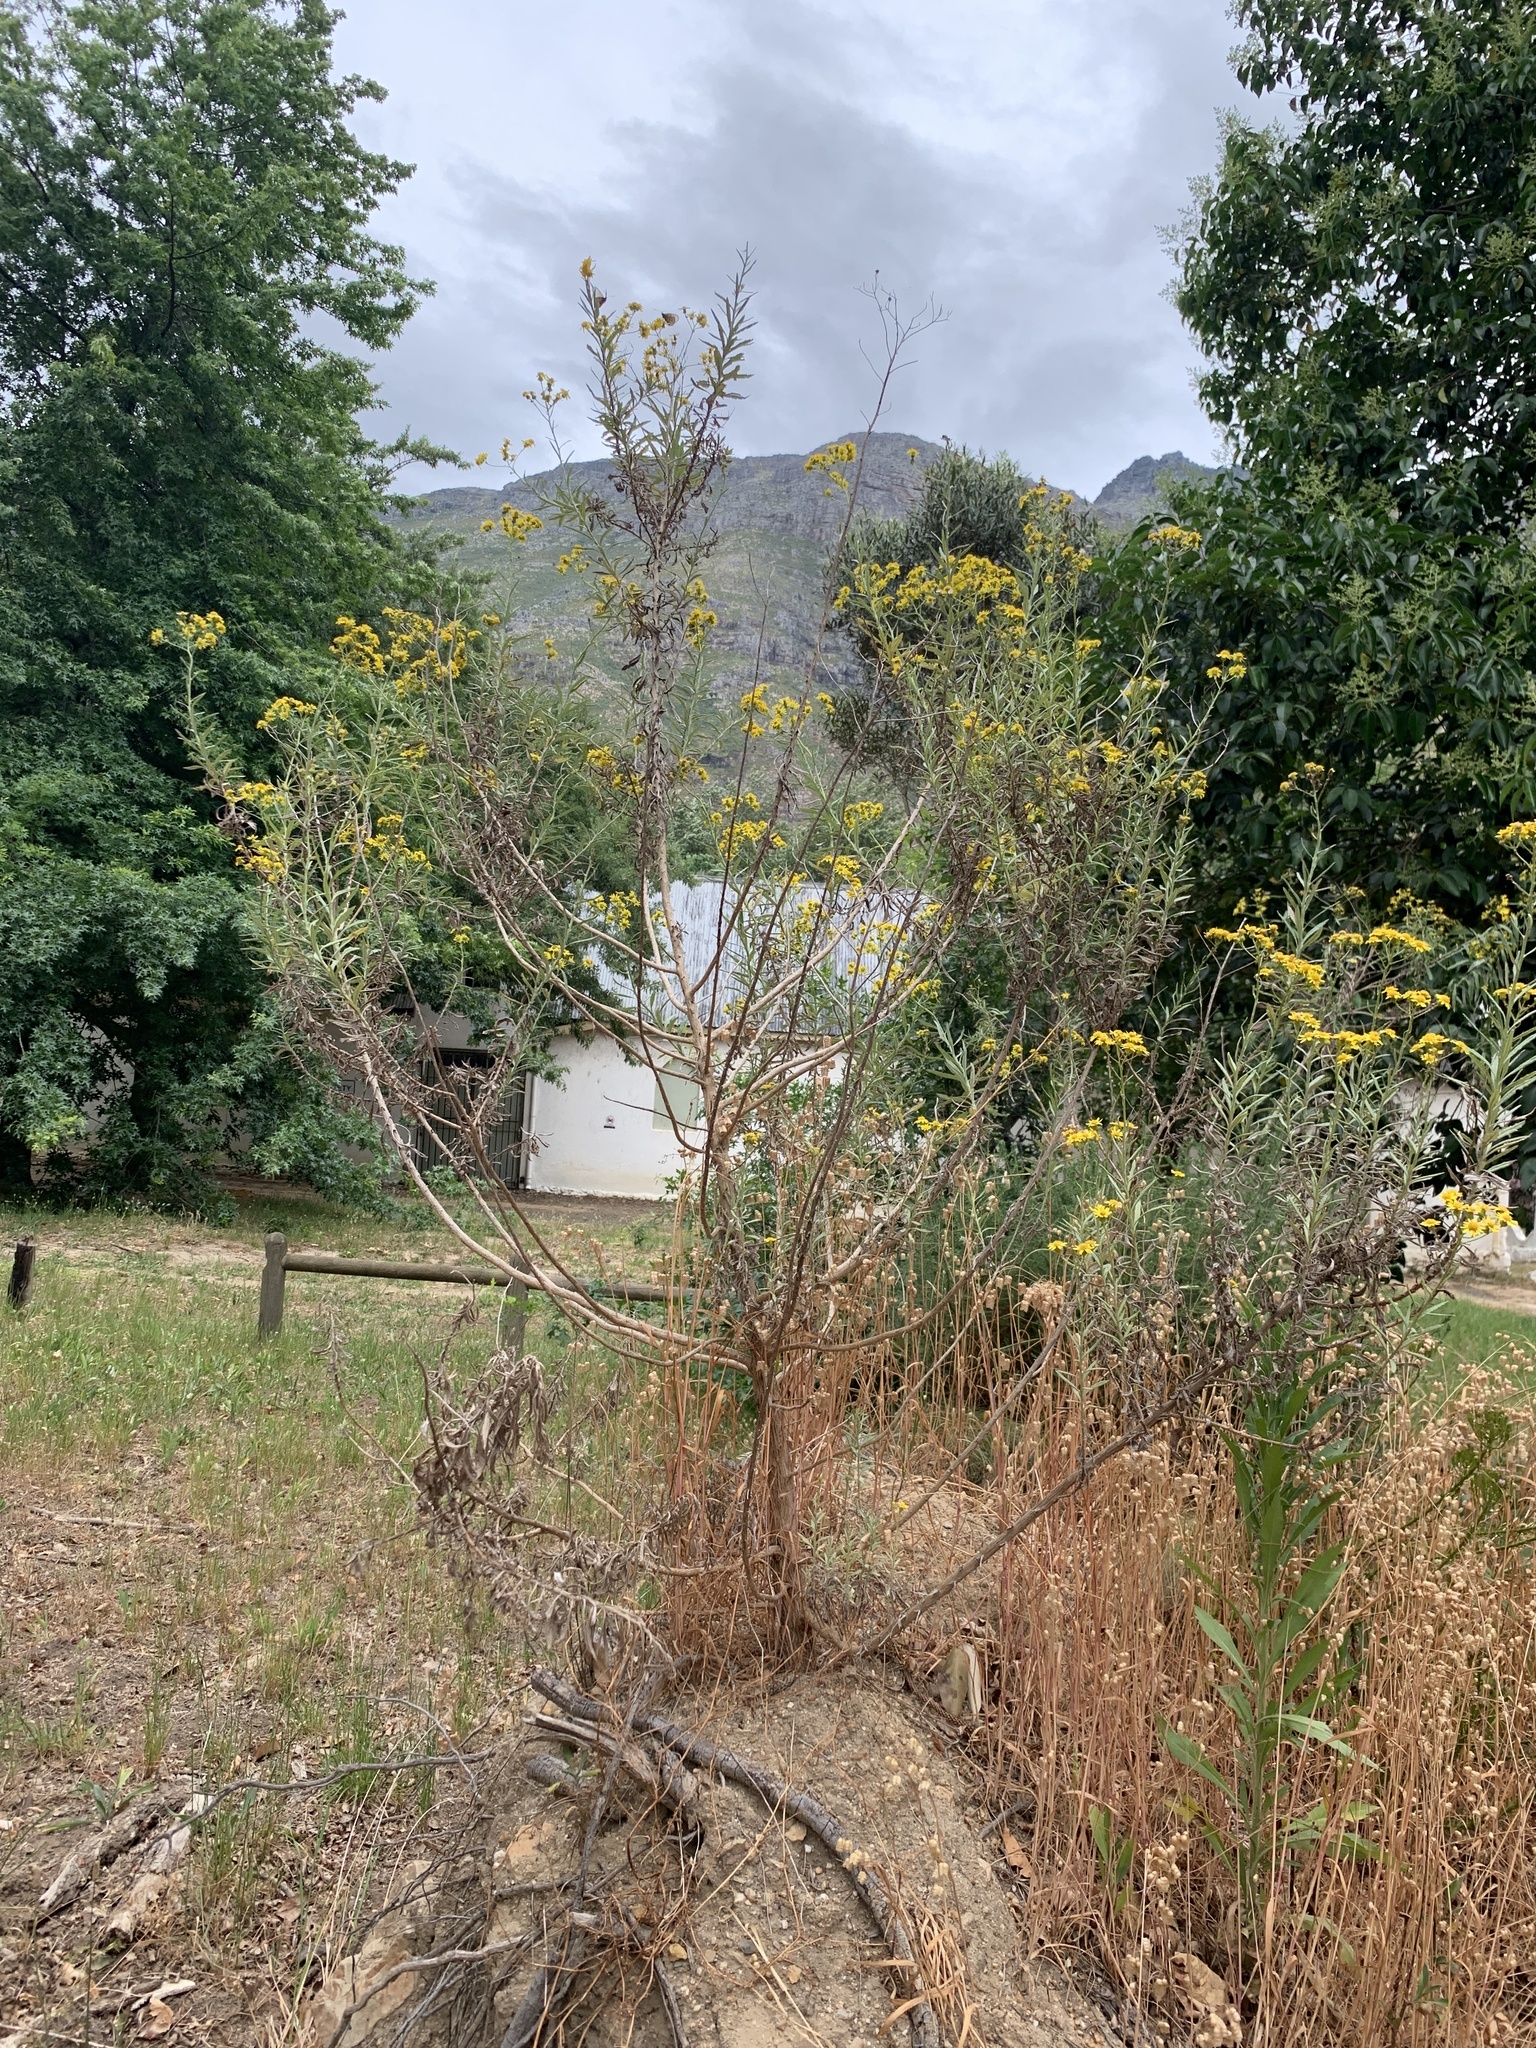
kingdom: Plantae
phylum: Tracheophyta
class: Magnoliopsida
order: Asterales
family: Asteraceae
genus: Senecio
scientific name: Senecio pterophorus
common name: Shoddy ragwort
